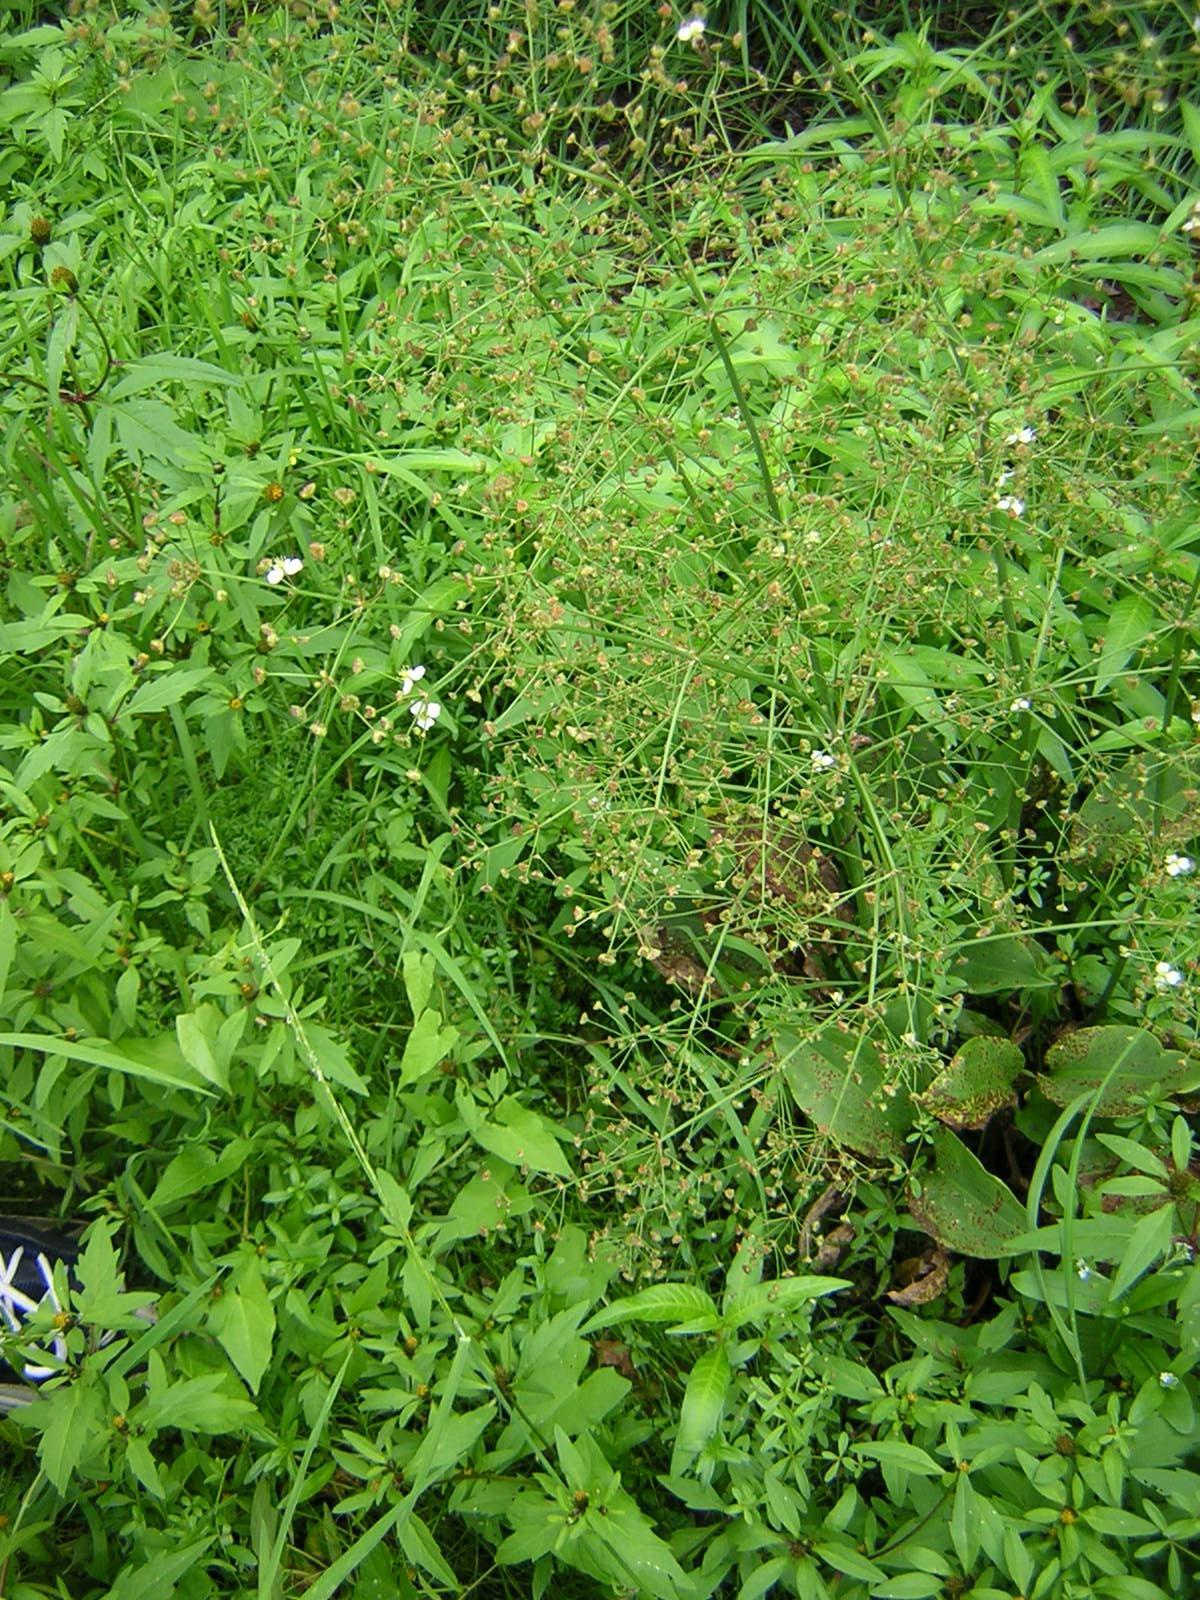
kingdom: Plantae
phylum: Tracheophyta
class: Liliopsida
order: Alismatales
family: Alismataceae
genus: Alisma
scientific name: Alisma plantago-aquatica
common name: Water-plantain
